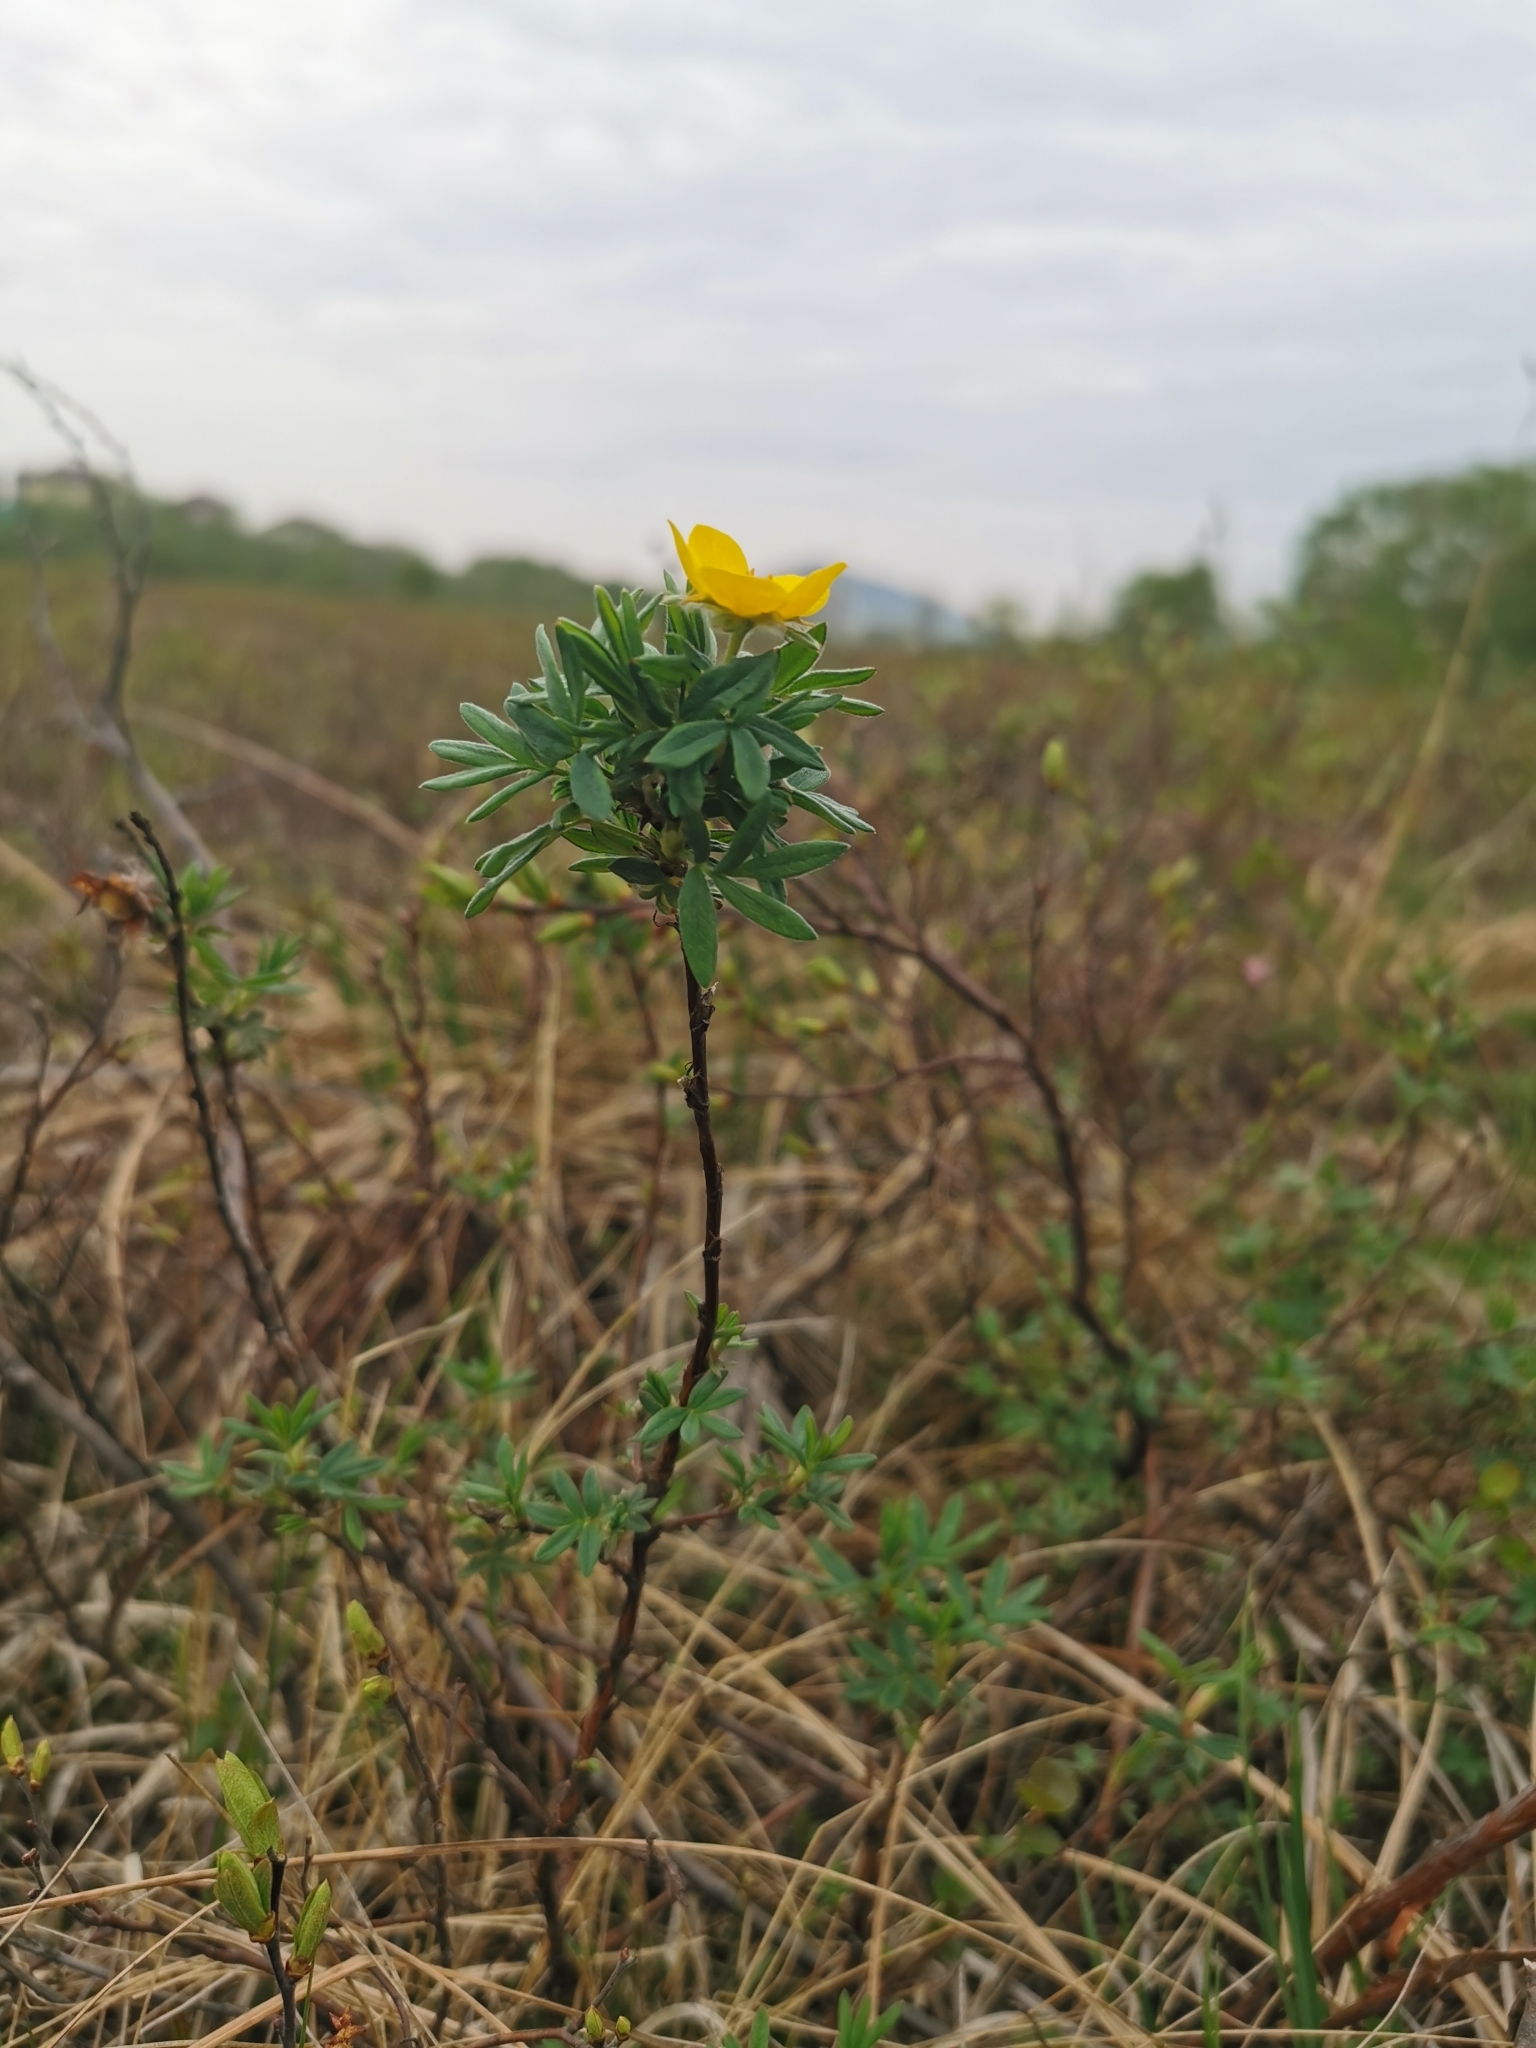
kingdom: Plantae
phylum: Tracheophyta
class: Magnoliopsida
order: Rosales
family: Rosaceae
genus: Dasiphora
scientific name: Dasiphora fruticosa
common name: Shrubby cinquefoil
